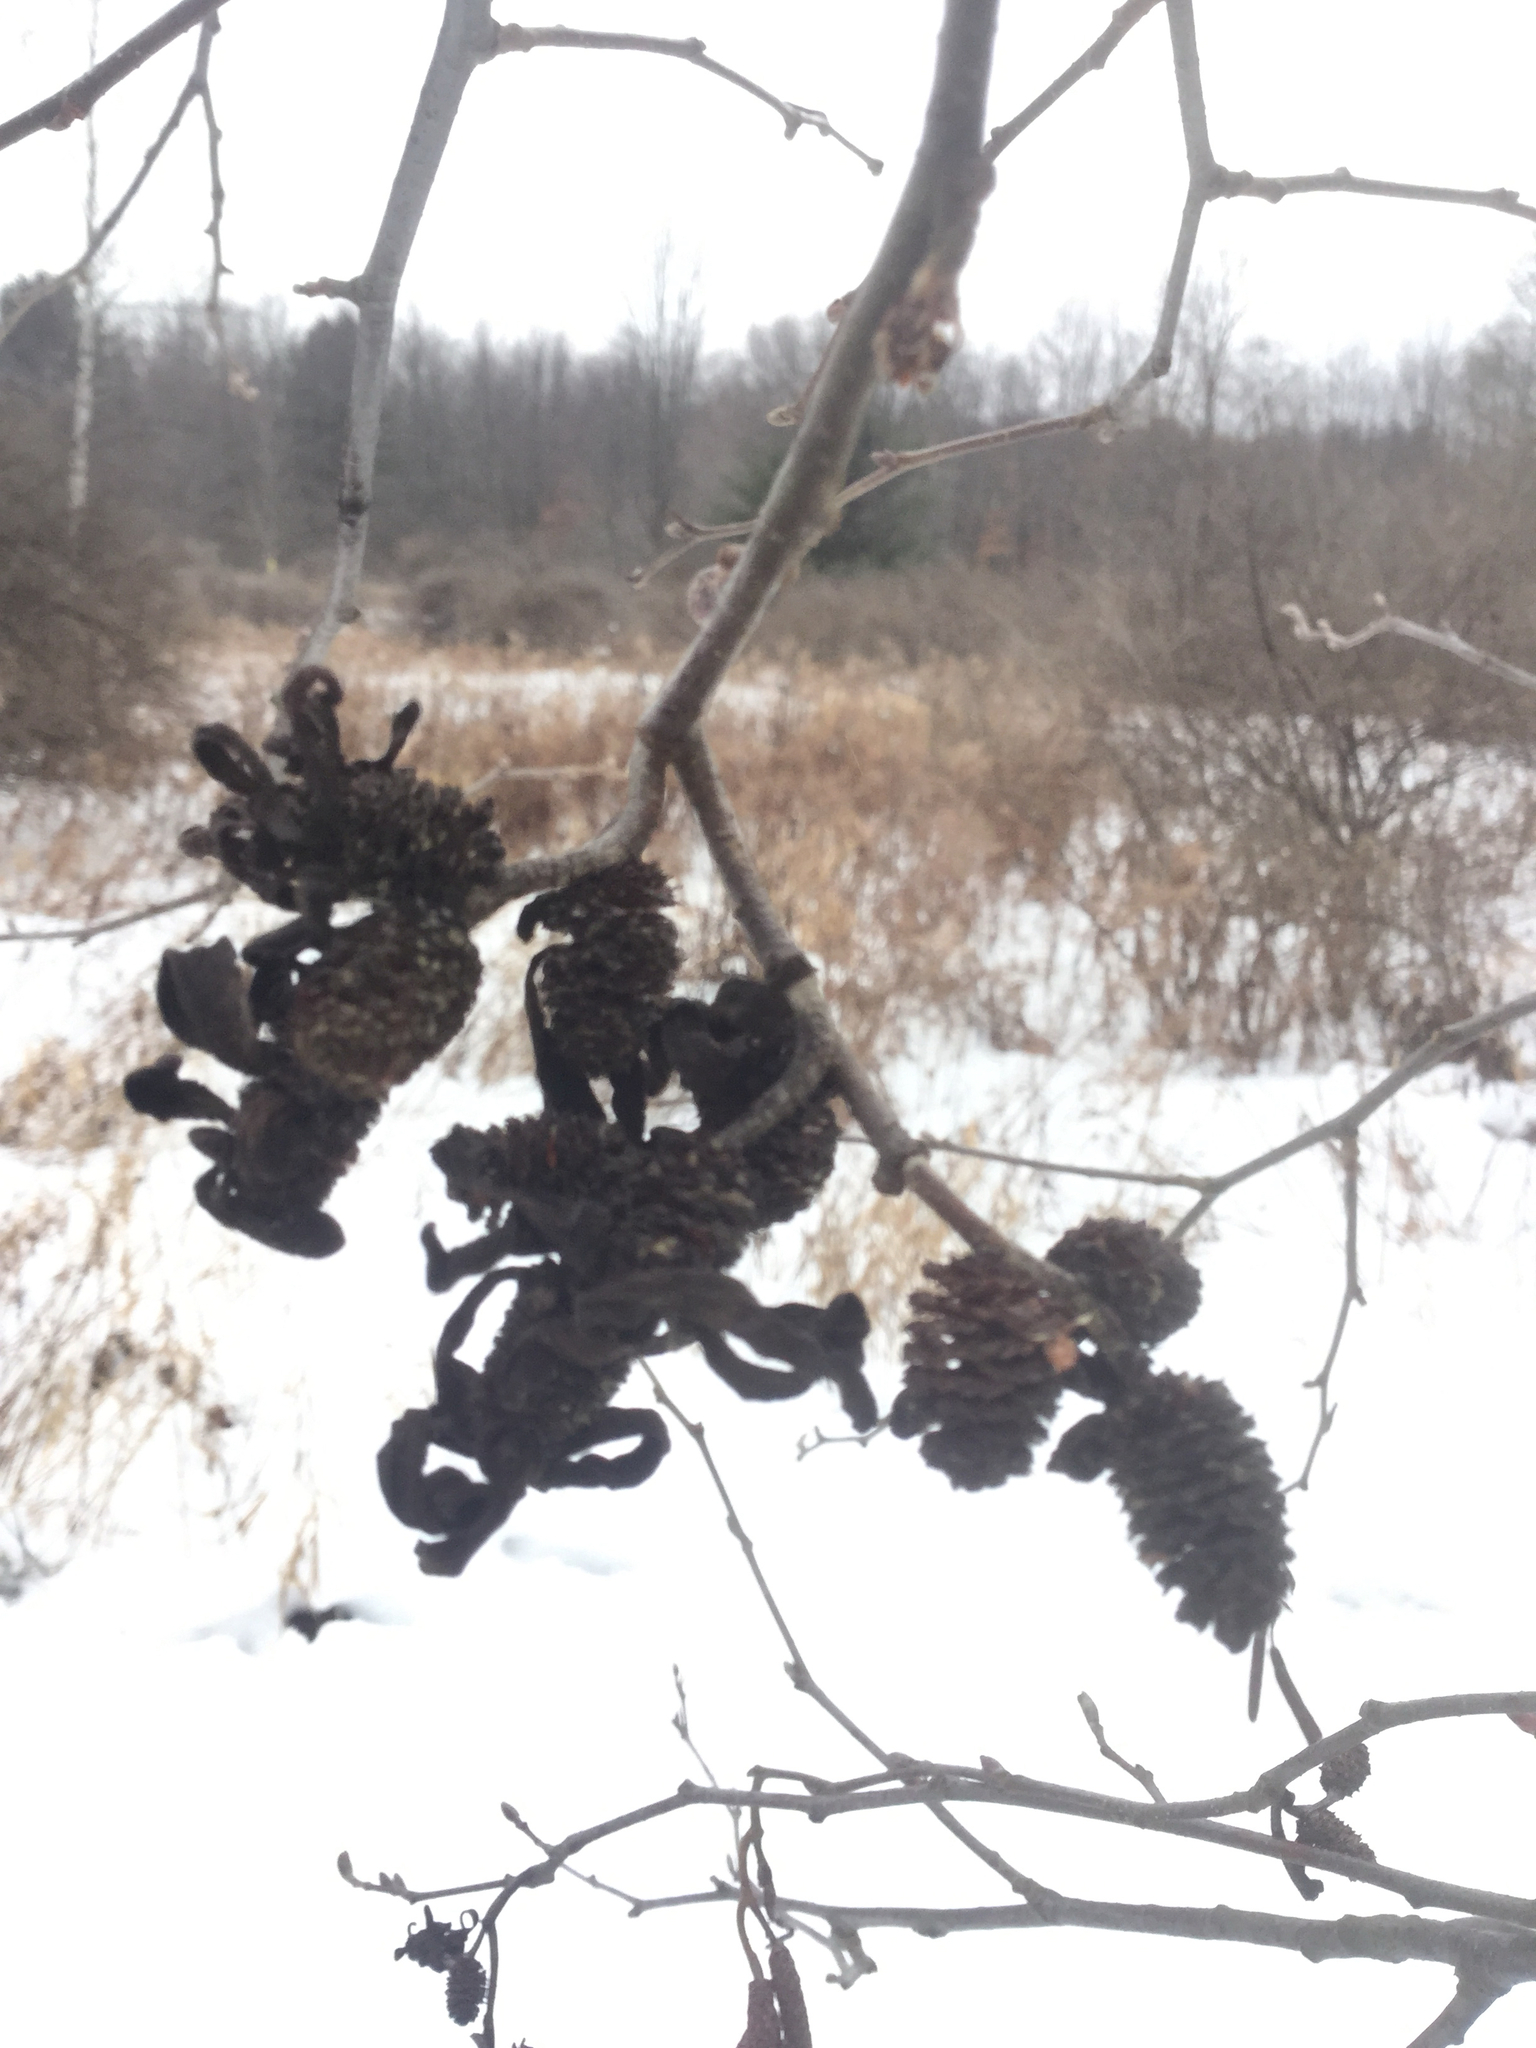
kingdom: Fungi
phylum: Ascomycota
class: Taphrinomycetes
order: Taphrinales
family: Taphrinaceae
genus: Taphrina
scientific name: Taphrina robinsoniana
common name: Eastern american alder tongue gall fungus
